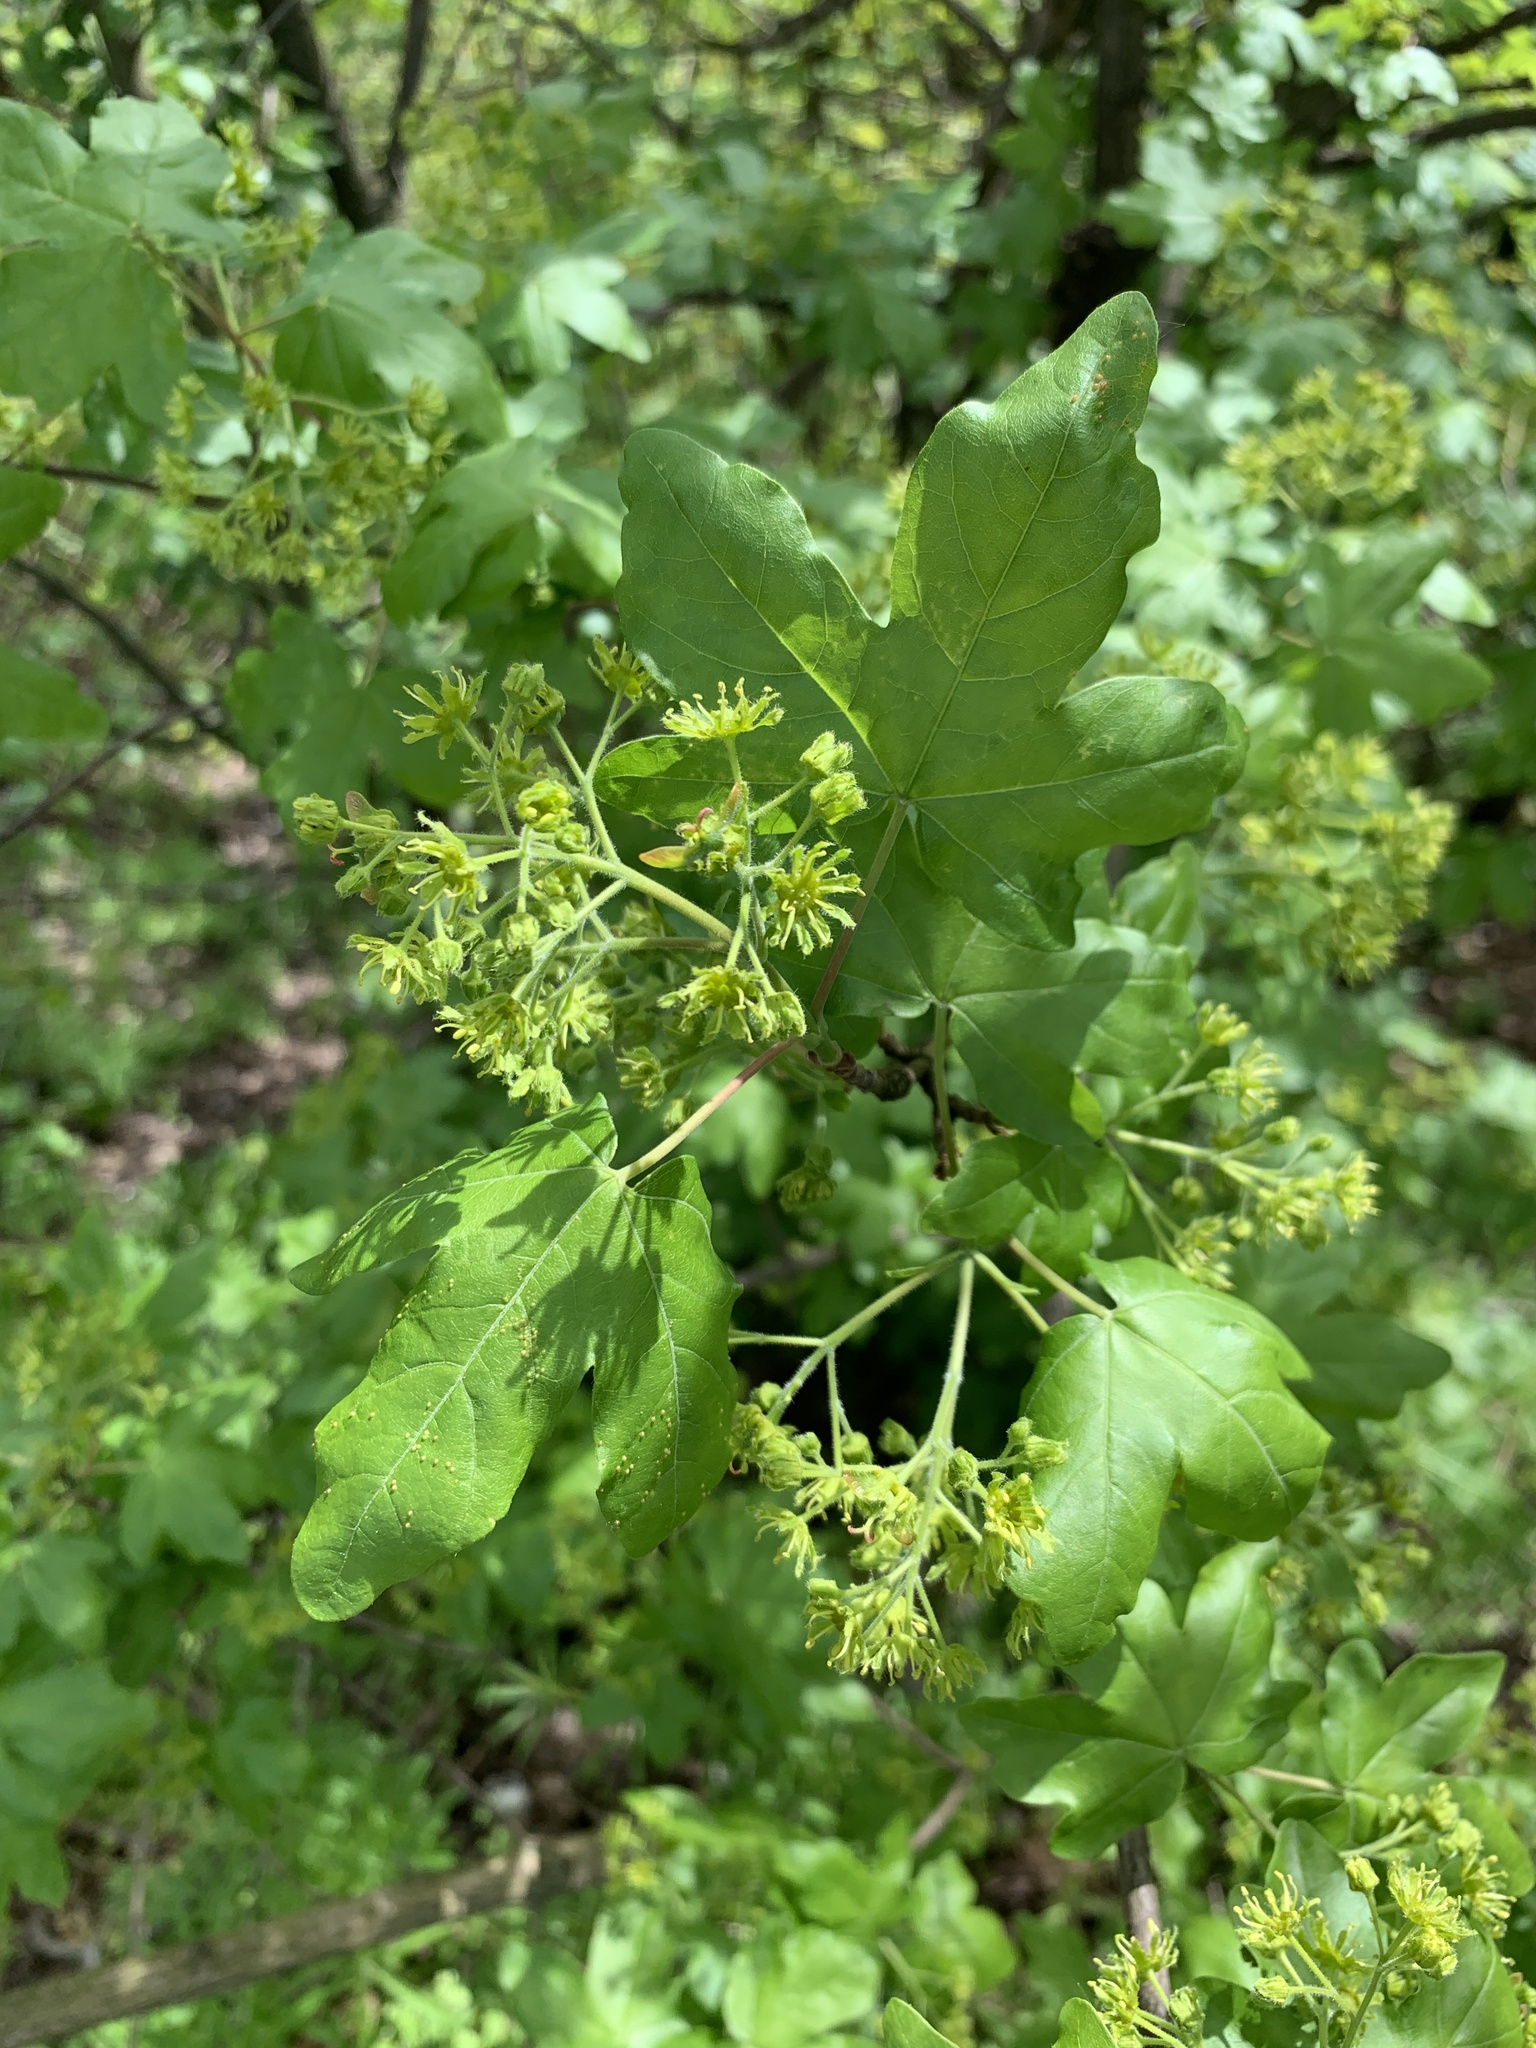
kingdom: Plantae
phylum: Tracheophyta
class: Magnoliopsida
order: Sapindales
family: Sapindaceae
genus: Acer
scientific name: Acer campestre
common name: Field maple
